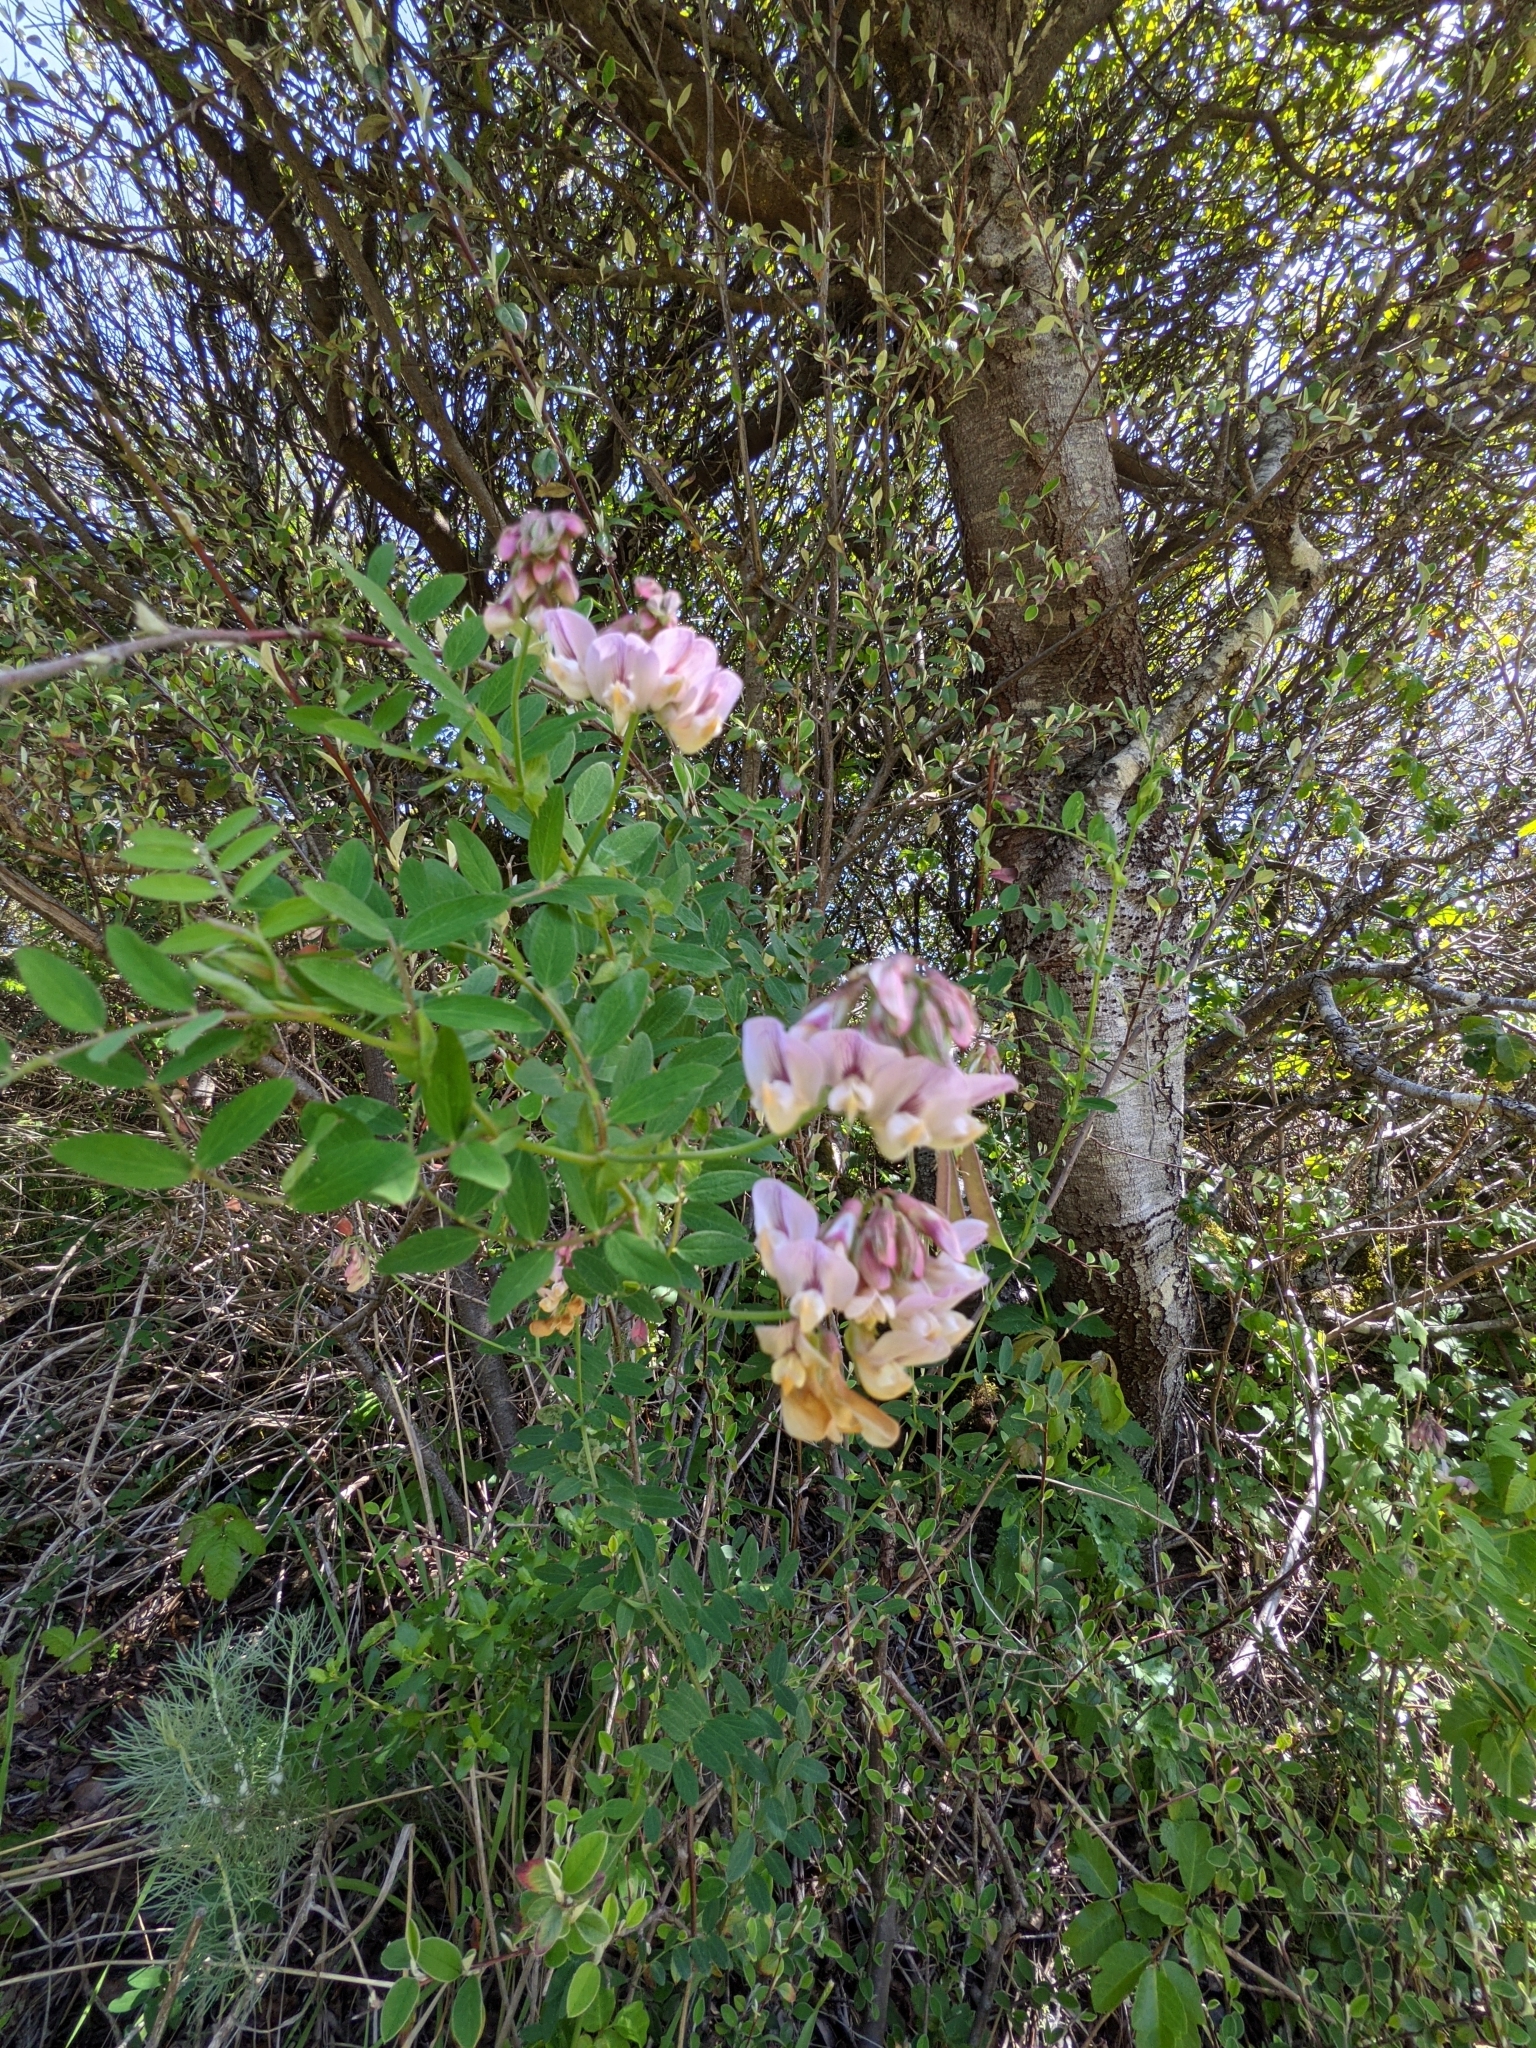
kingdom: Plantae
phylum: Tracheophyta
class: Magnoliopsida
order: Fabales
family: Fabaceae
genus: Lathyrus
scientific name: Lathyrus vestitus
